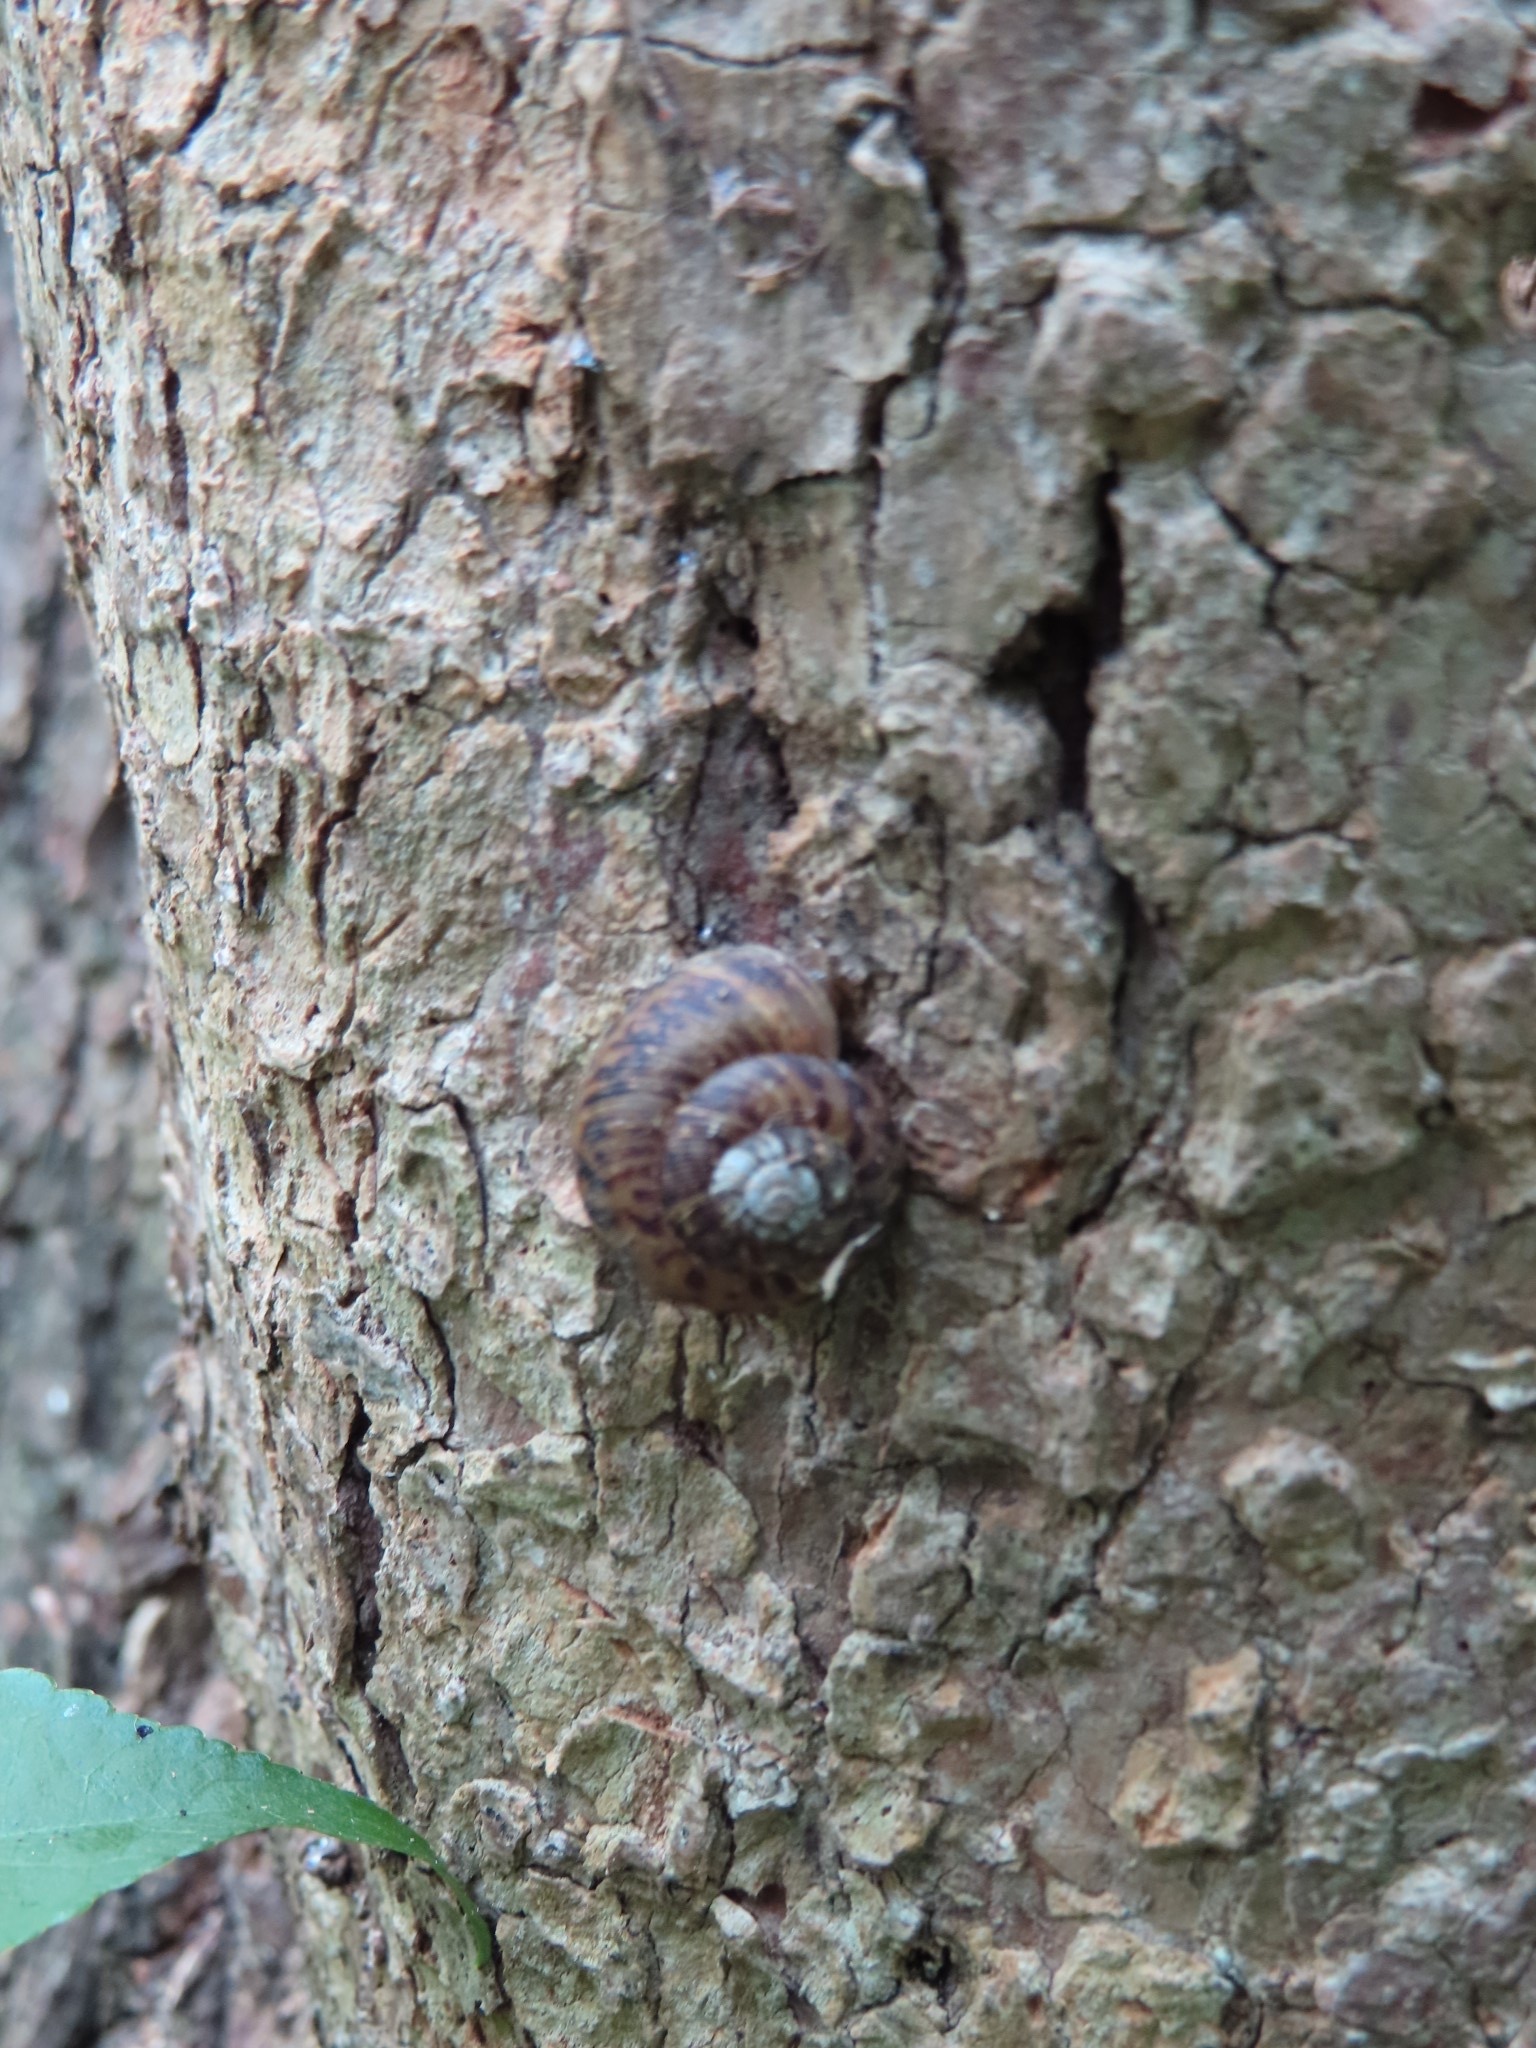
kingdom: Animalia
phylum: Mollusca
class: Gastropoda
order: Stylommatophora
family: Discidae
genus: Anguispira
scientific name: Anguispira alternata
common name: Flamed tigersnail
